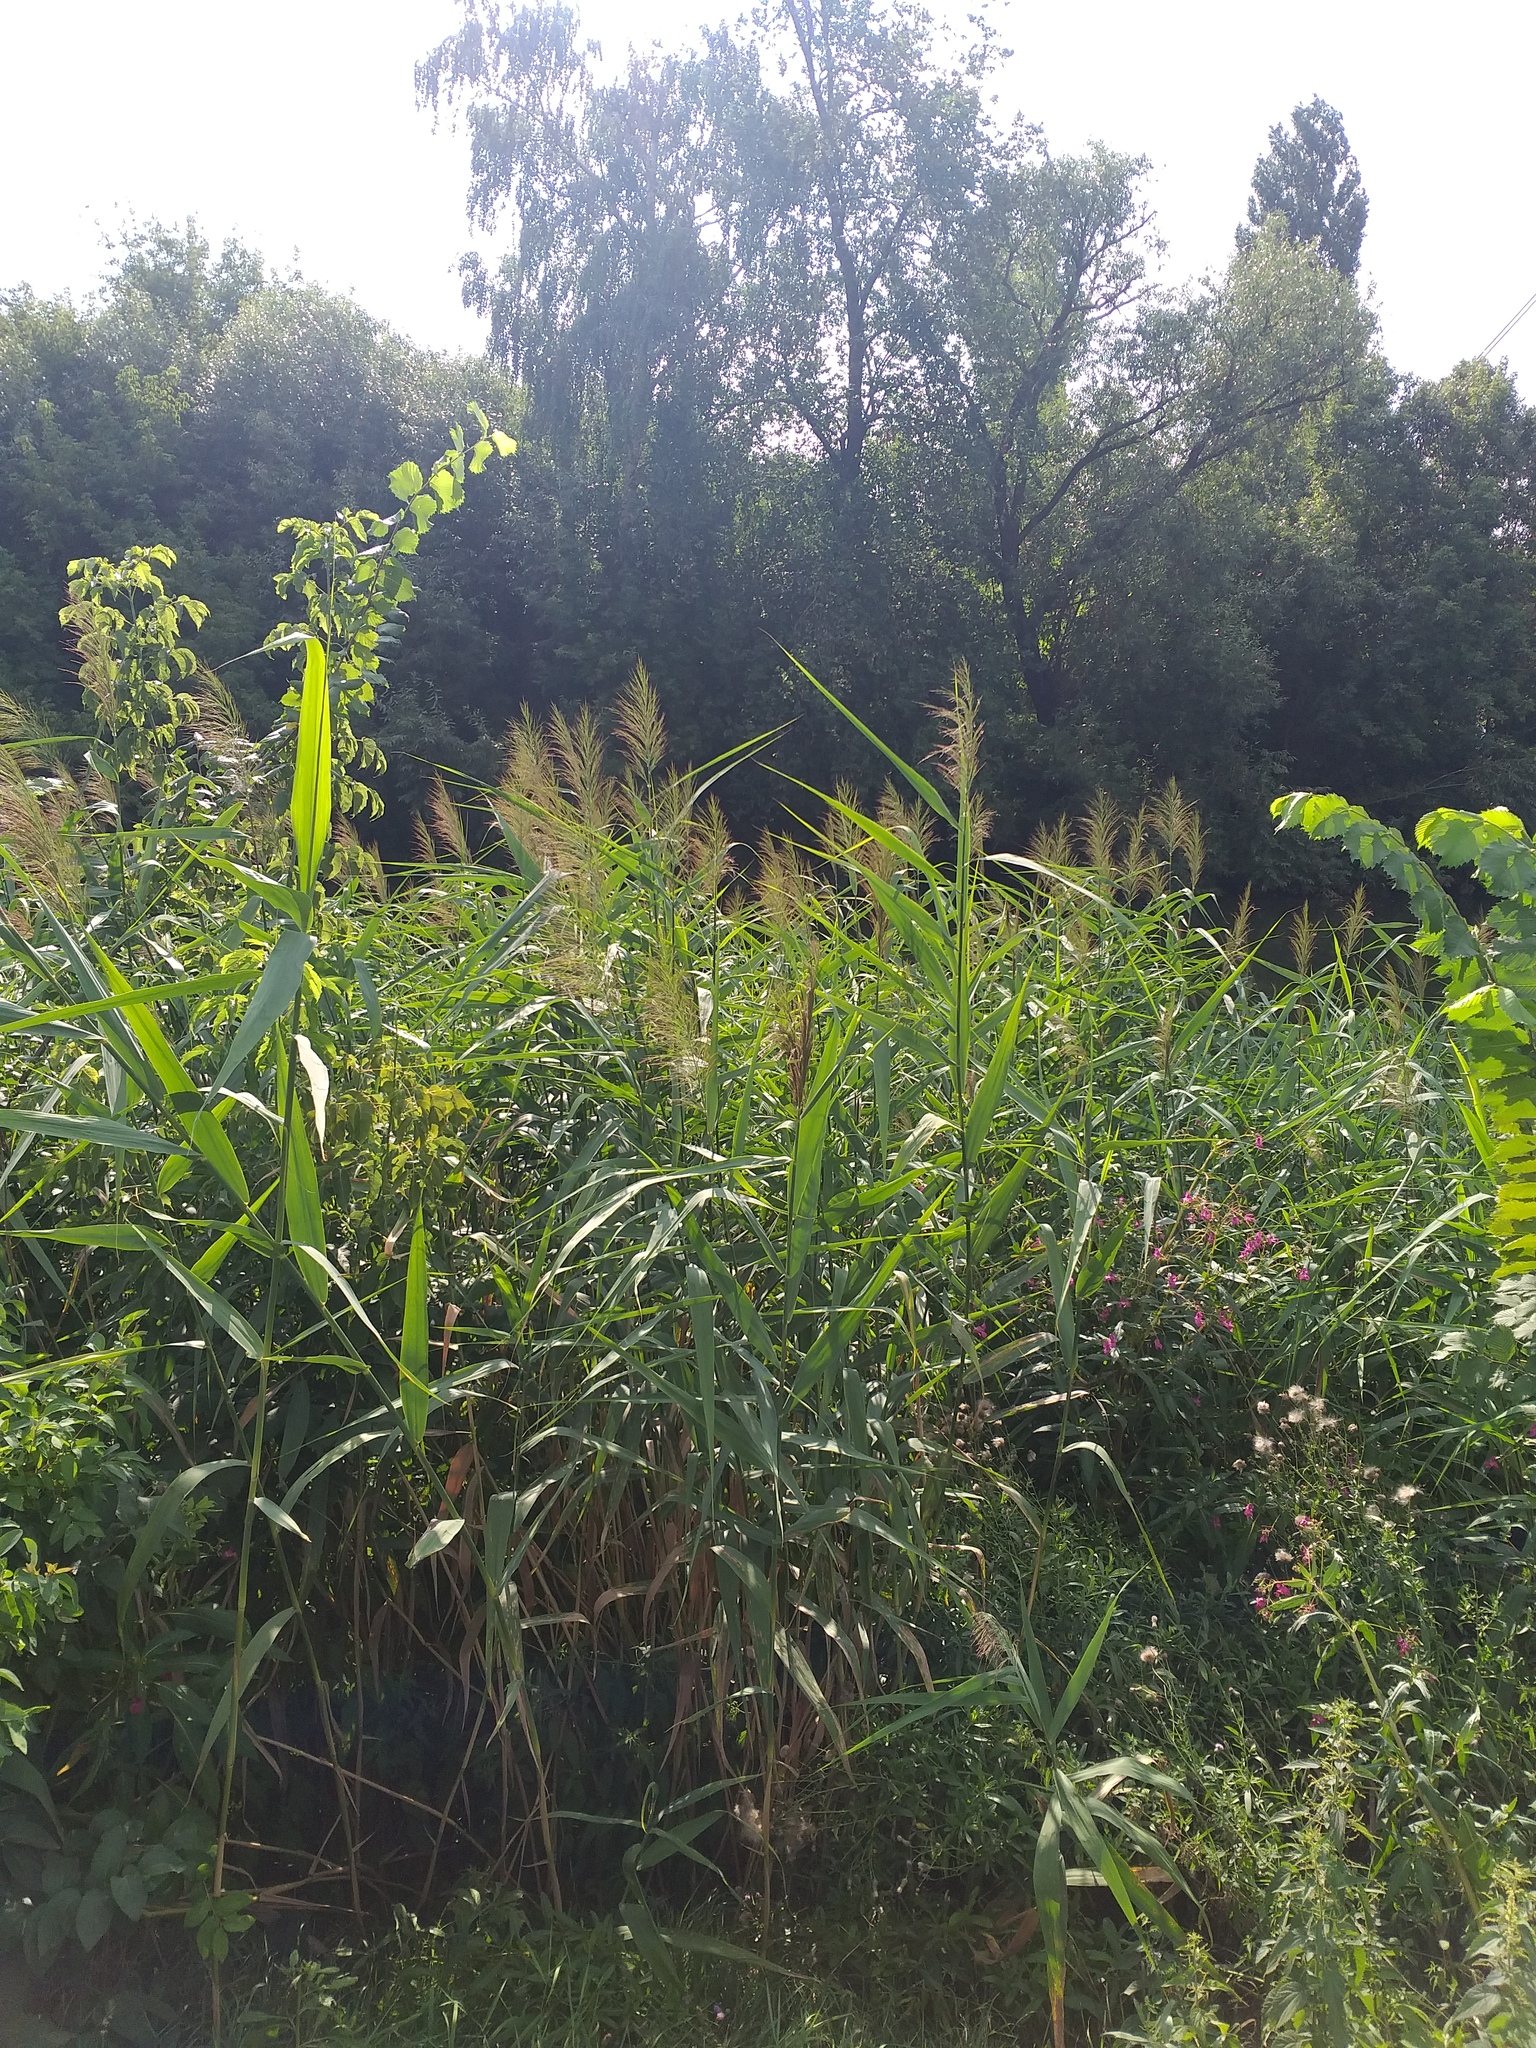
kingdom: Plantae
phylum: Tracheophyta
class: Liliopsida
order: Poales
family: Poaceae
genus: Phragmites
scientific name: Phragmites australis
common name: Common reed
